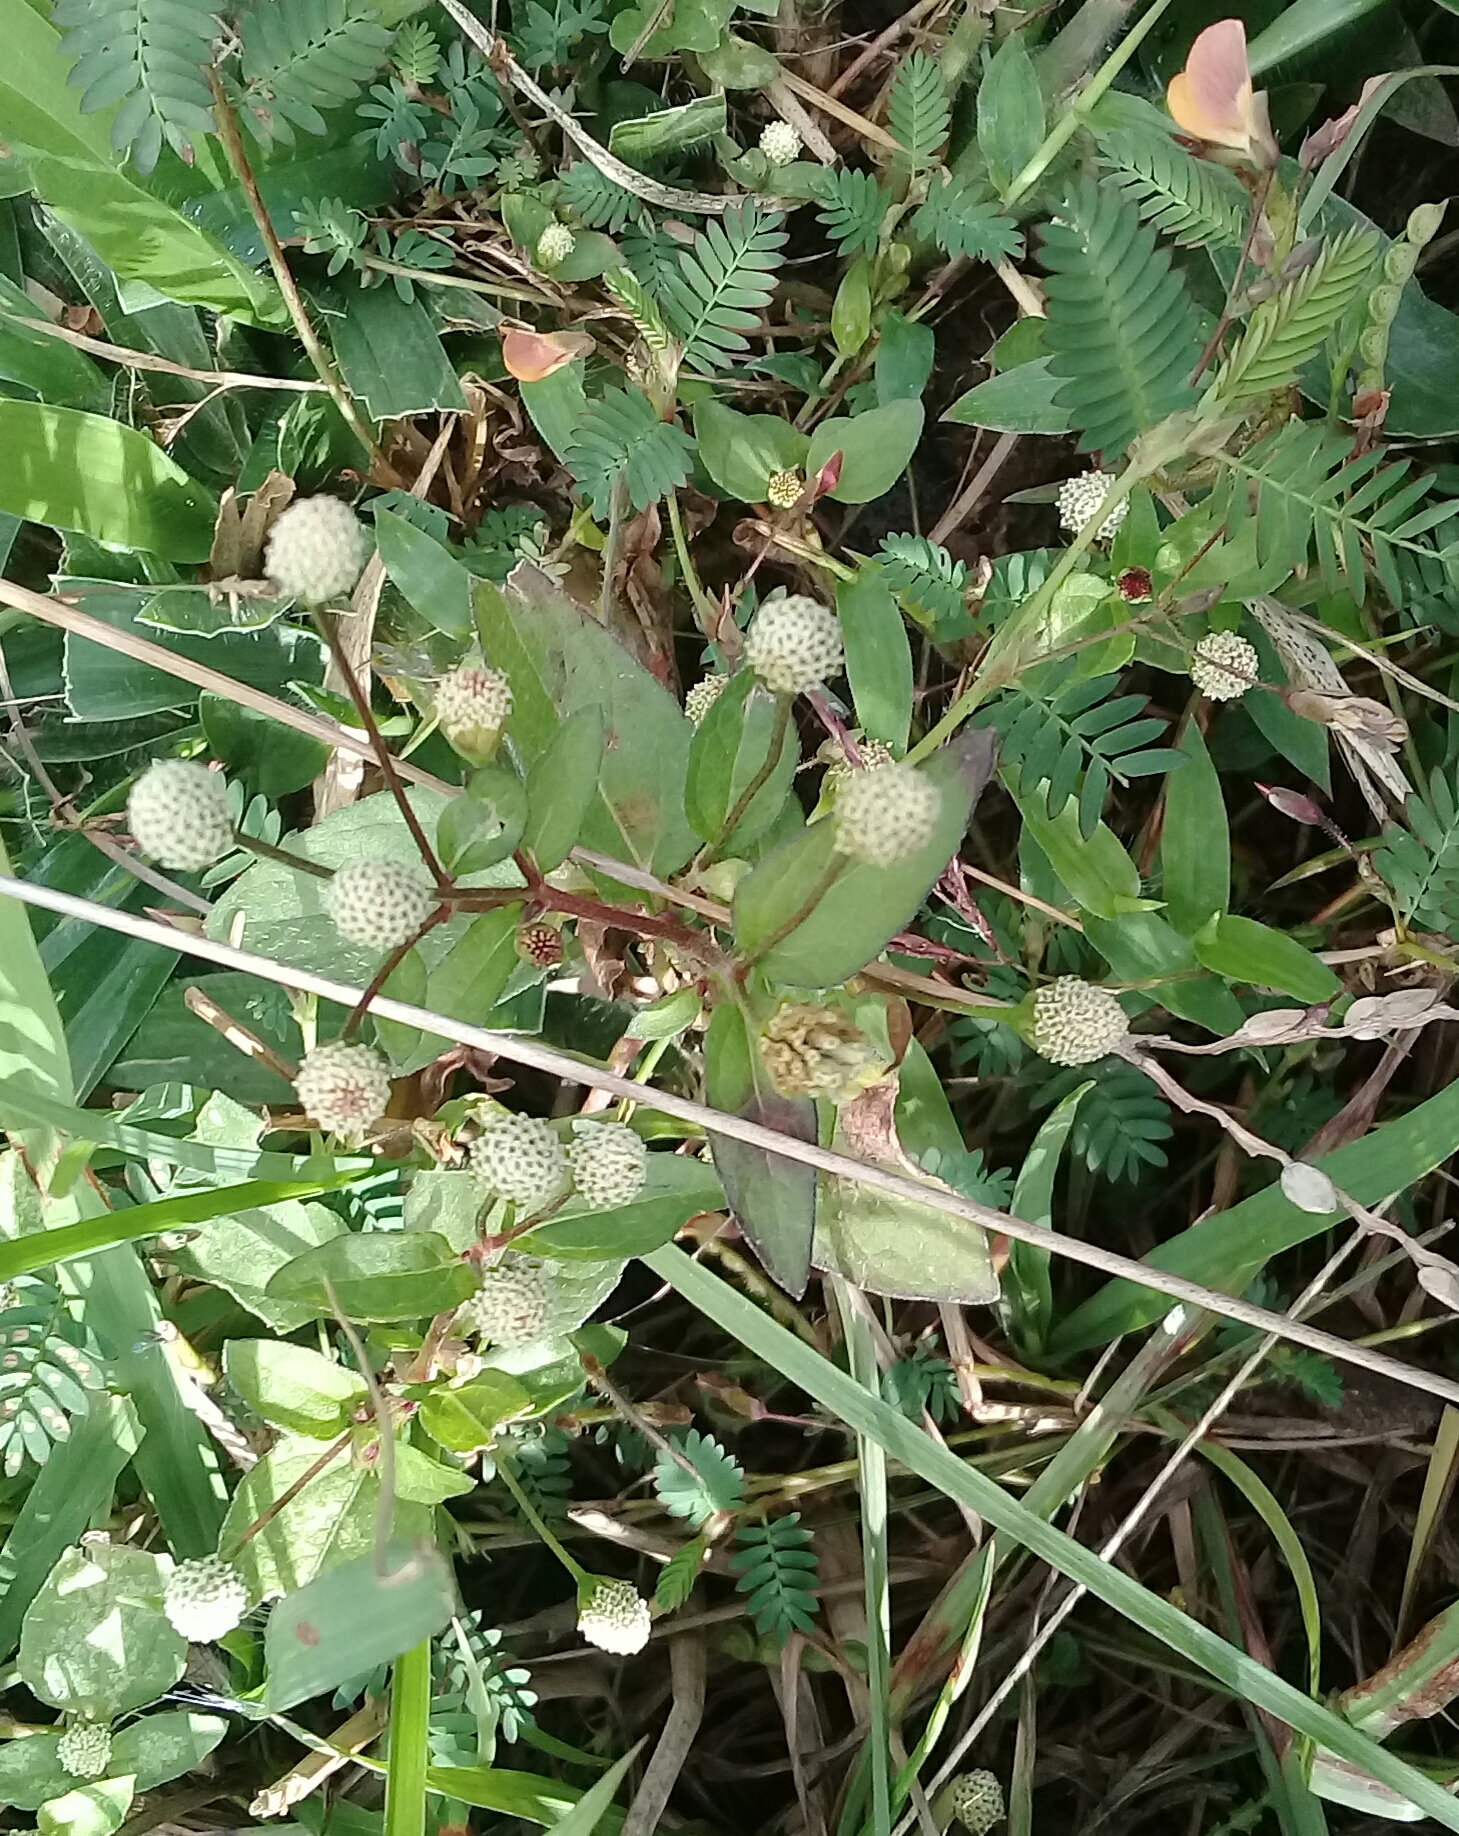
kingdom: Plantae
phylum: Tracheophyta
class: Magnoliopsida
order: Asterales
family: Asteraceae
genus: Acmella
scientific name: Acmella radicans
